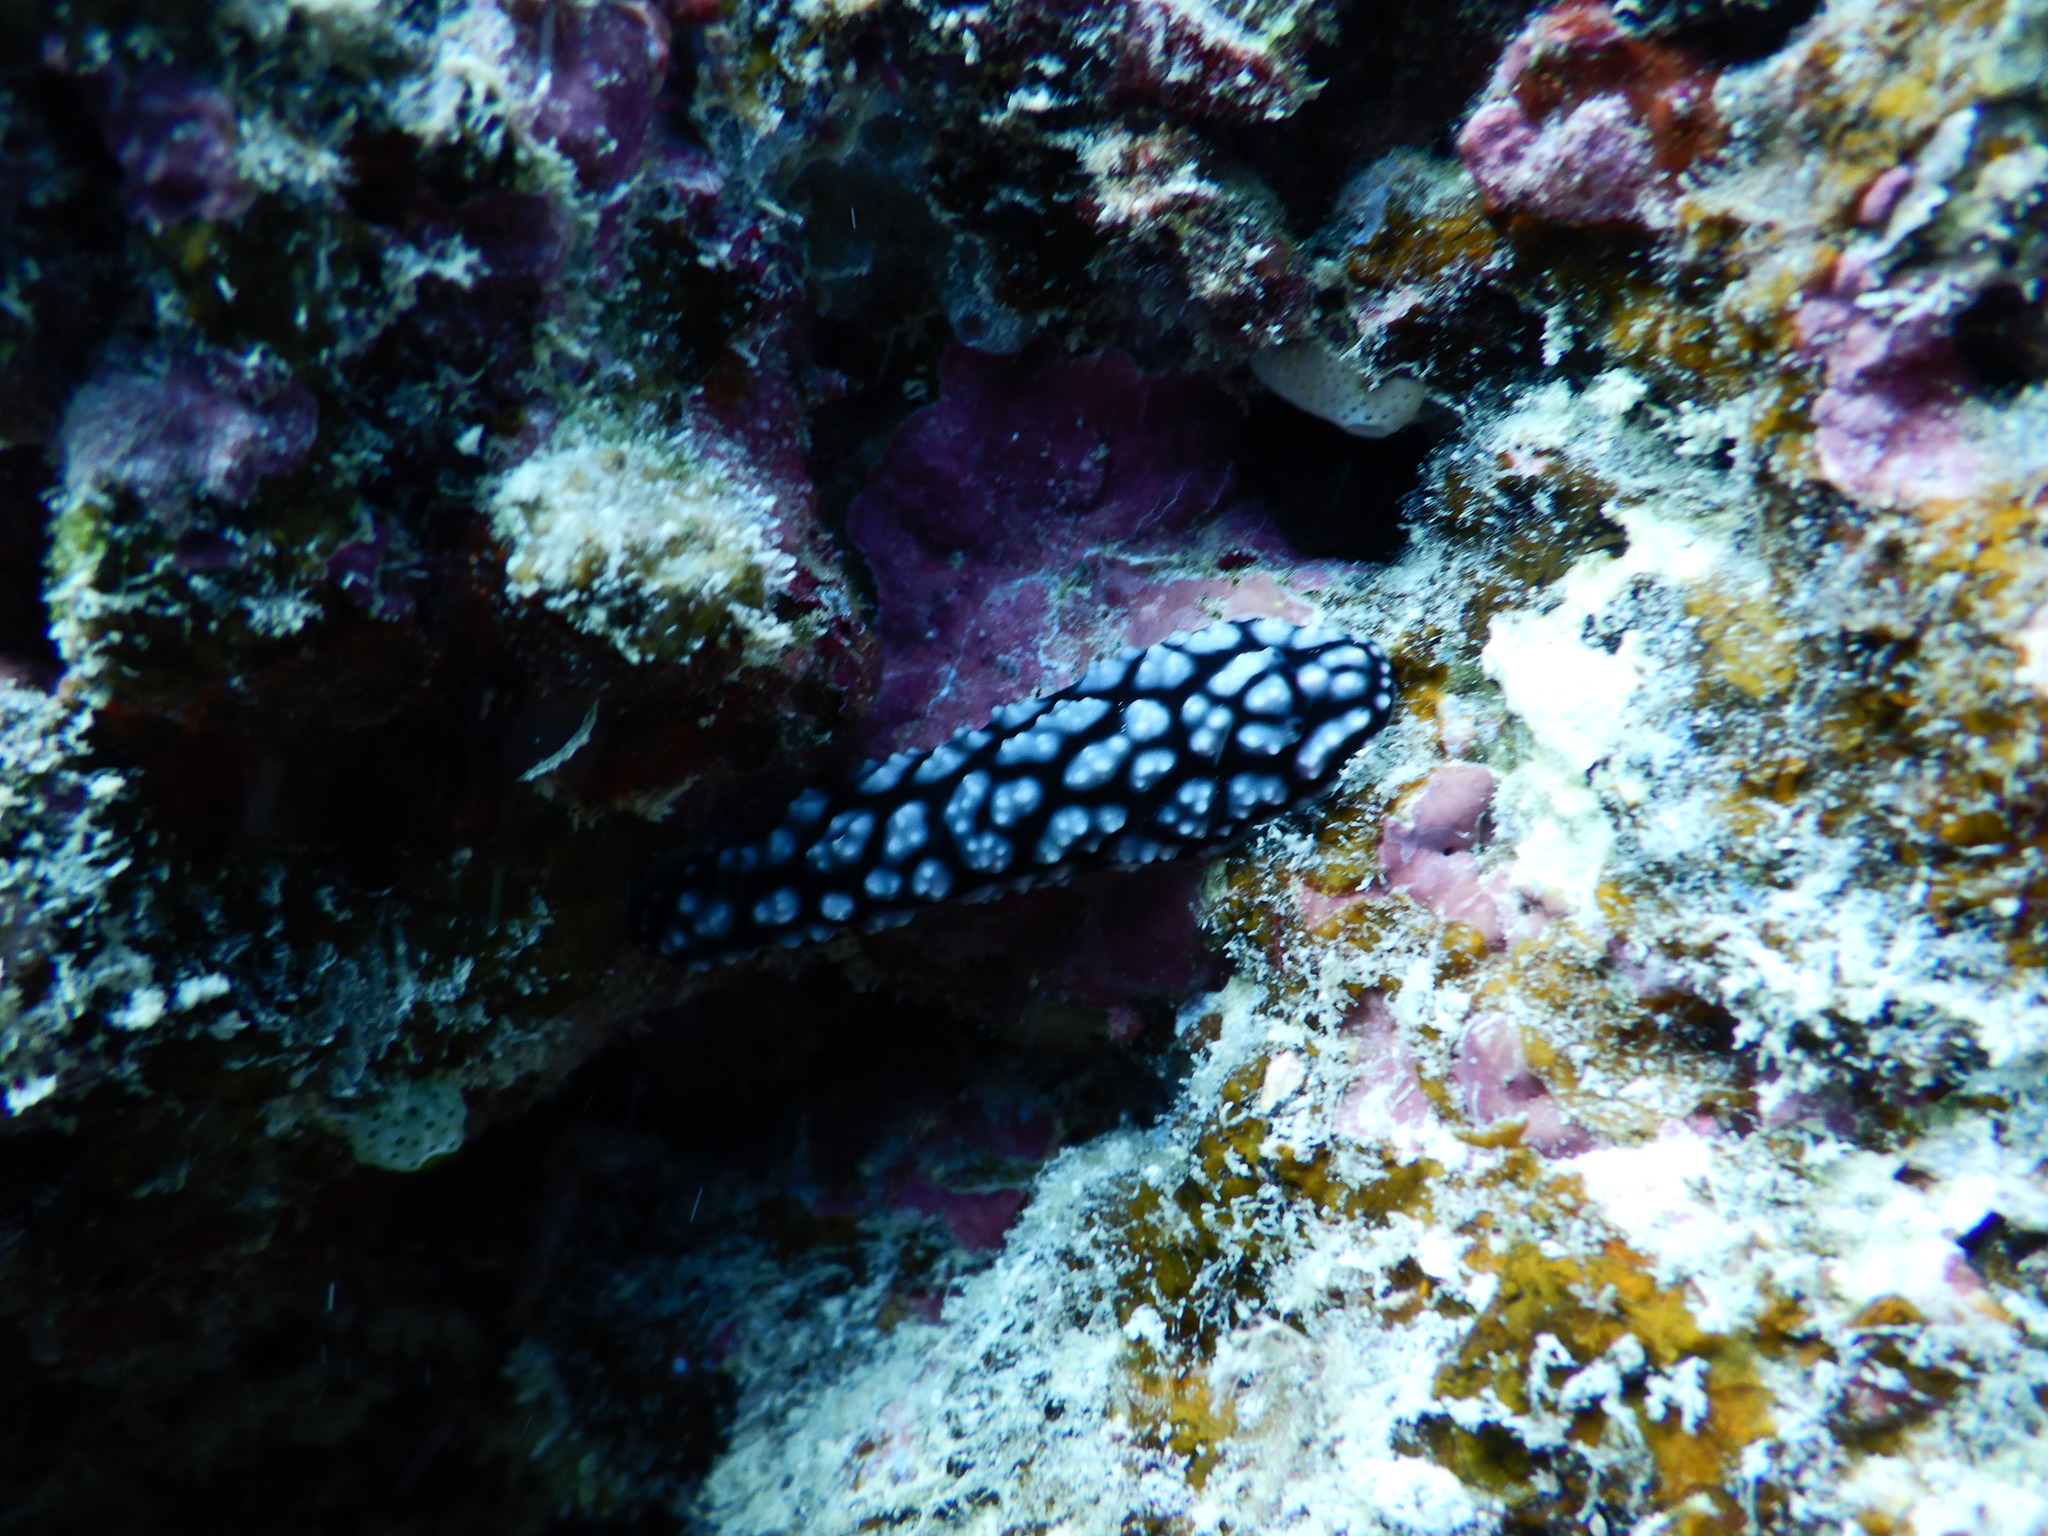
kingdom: Animalia
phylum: Mollusca
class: Gastropoda
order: Nudibranchia
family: Phyllidiidae
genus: Phyllidiella
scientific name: Phyllidiella pustulosa
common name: Pustular phyllidia
